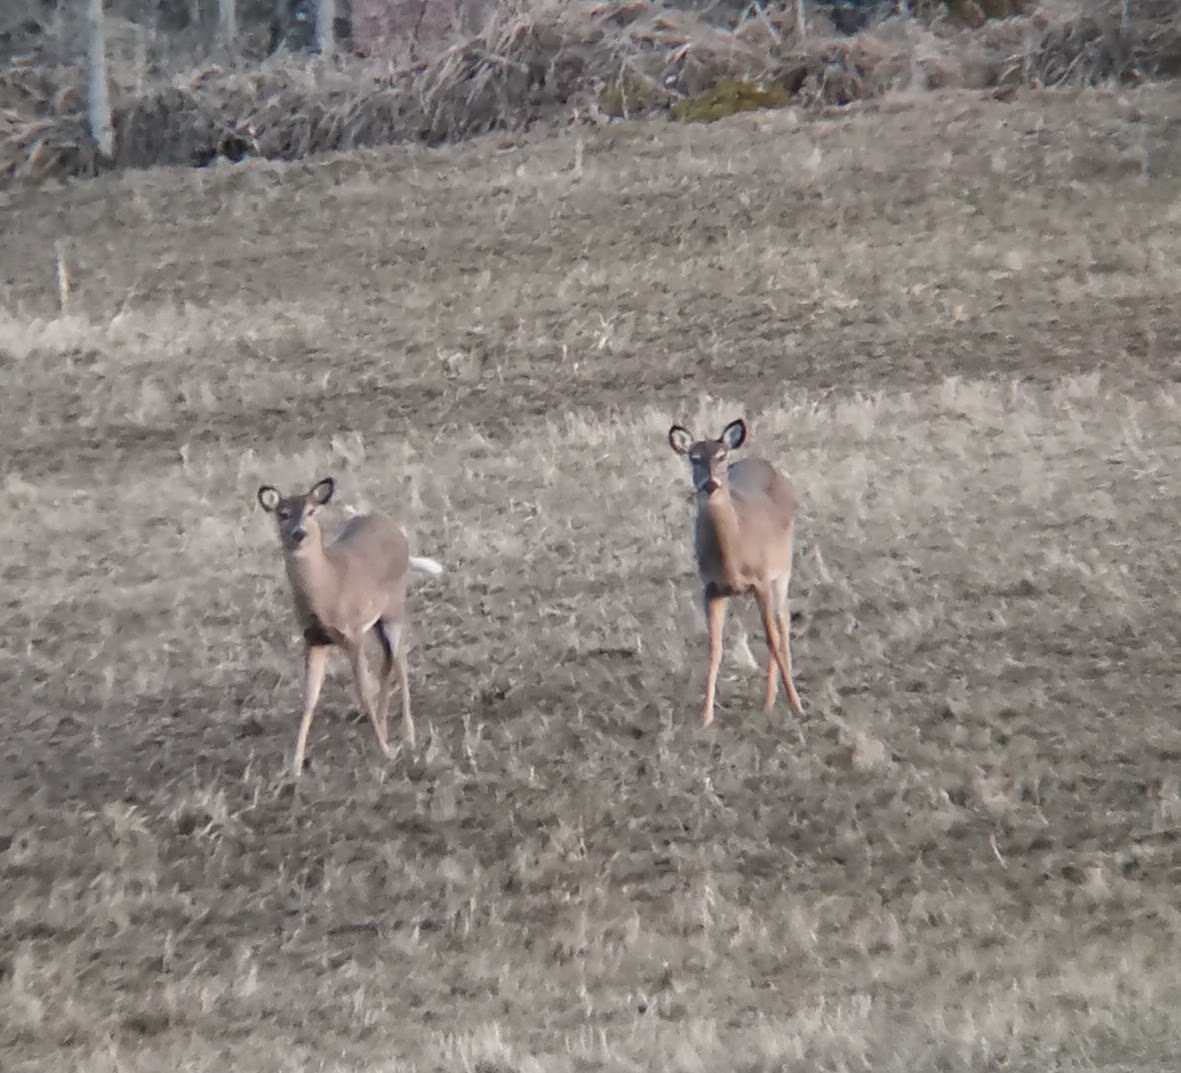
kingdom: Animalia
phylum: Chordata
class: Mammalia
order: Artiodactyla
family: Cervidae
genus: Odocoileus
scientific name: Odocoileus virginianus
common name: White-tailed deer
